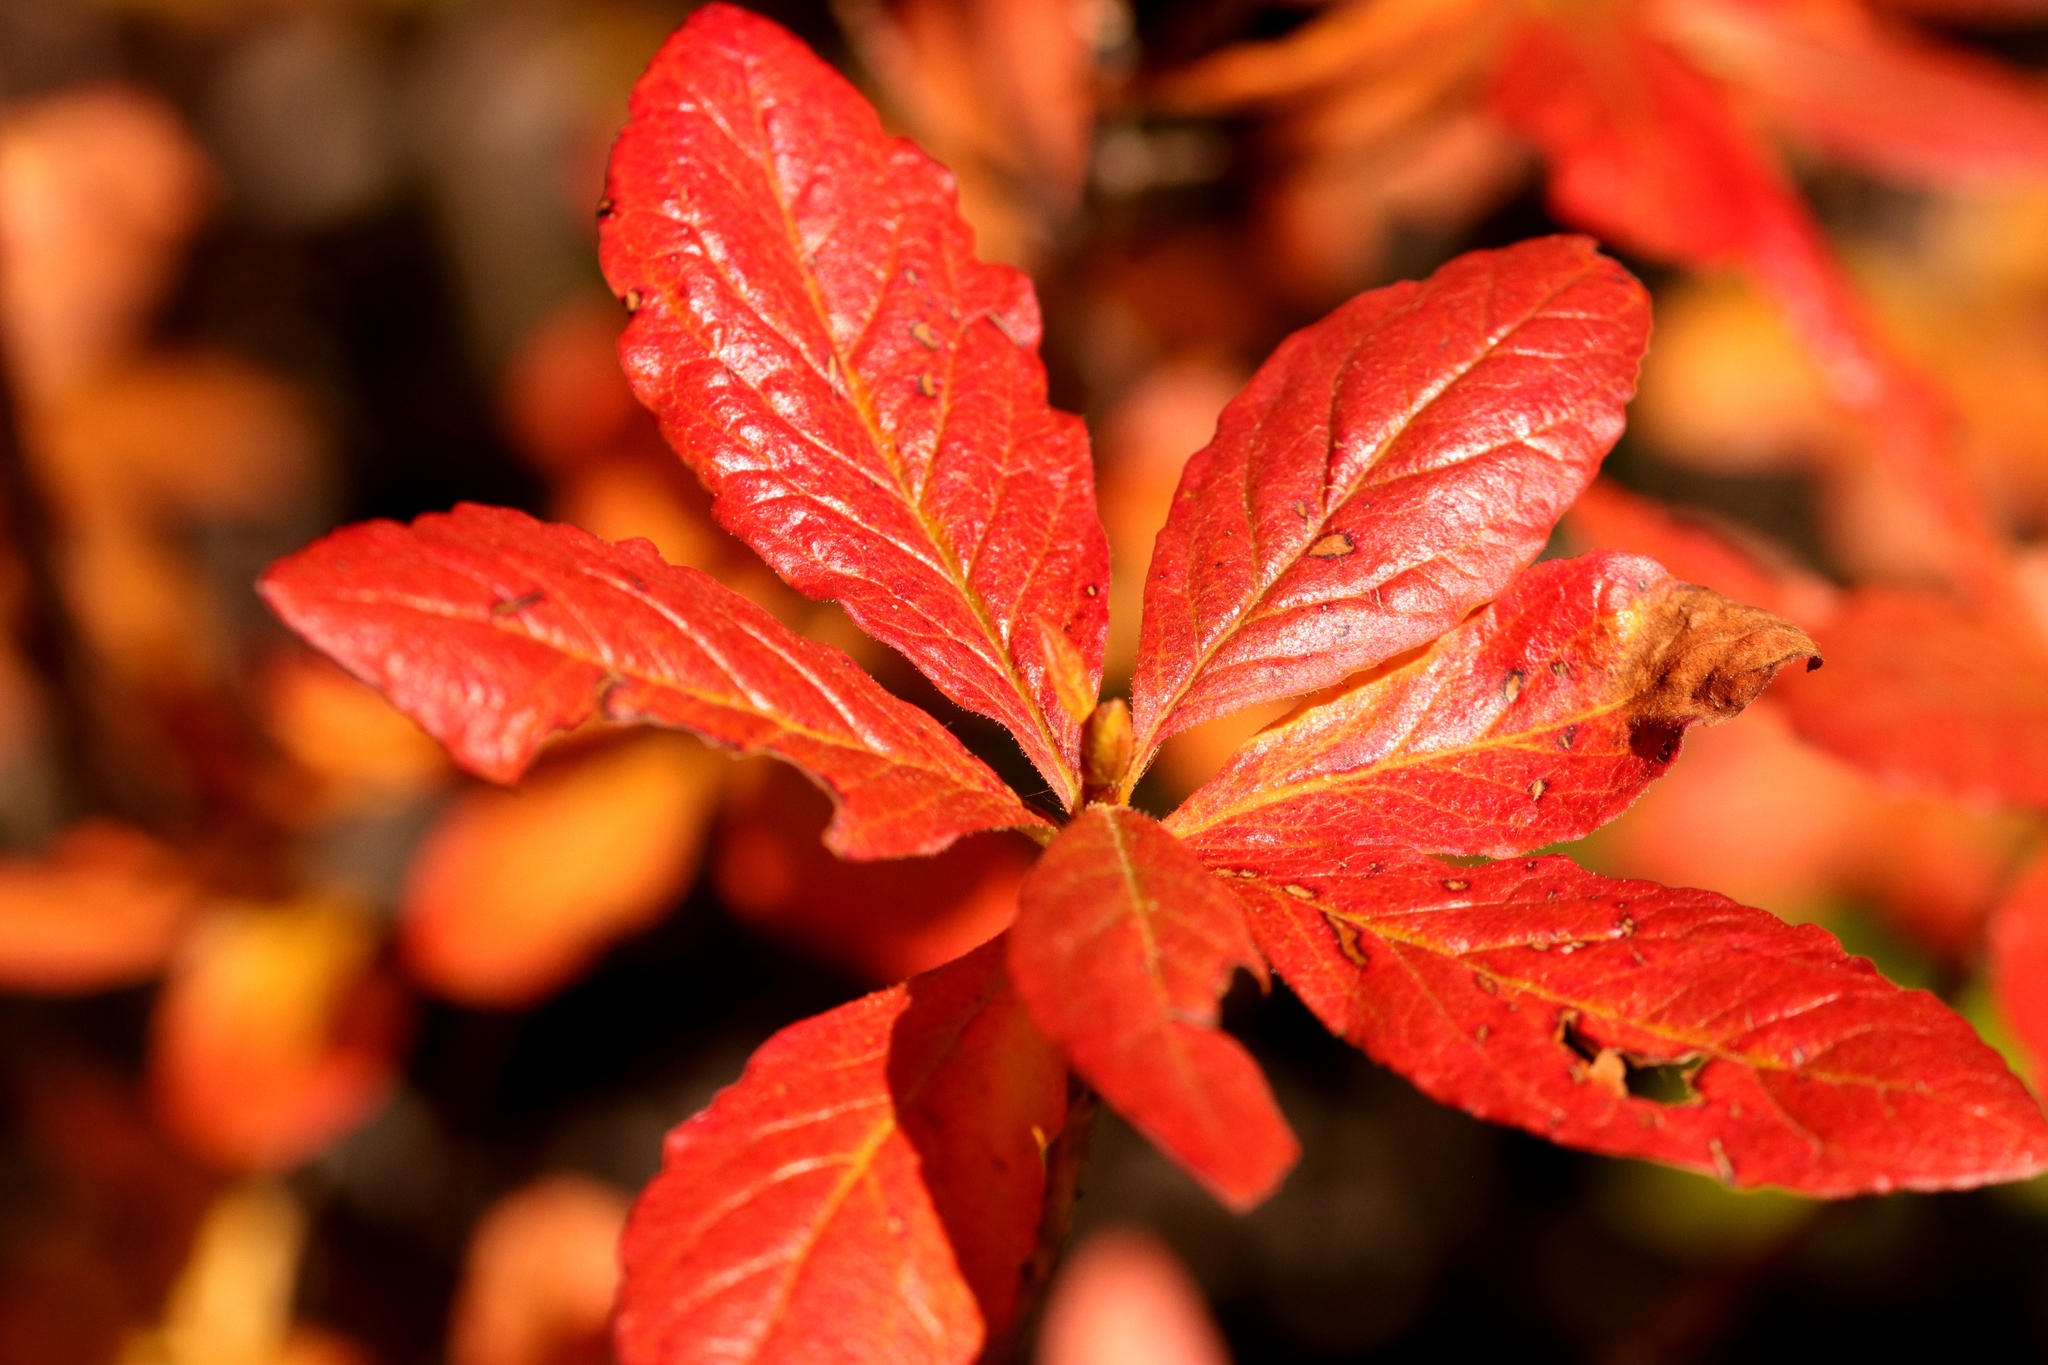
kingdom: Plantae
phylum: Tracheophyta
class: Magnoliopsida
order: Ericales
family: Ericaceae
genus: Rhododendron
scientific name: Rhododendron albiflorum
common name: White rhododendron
